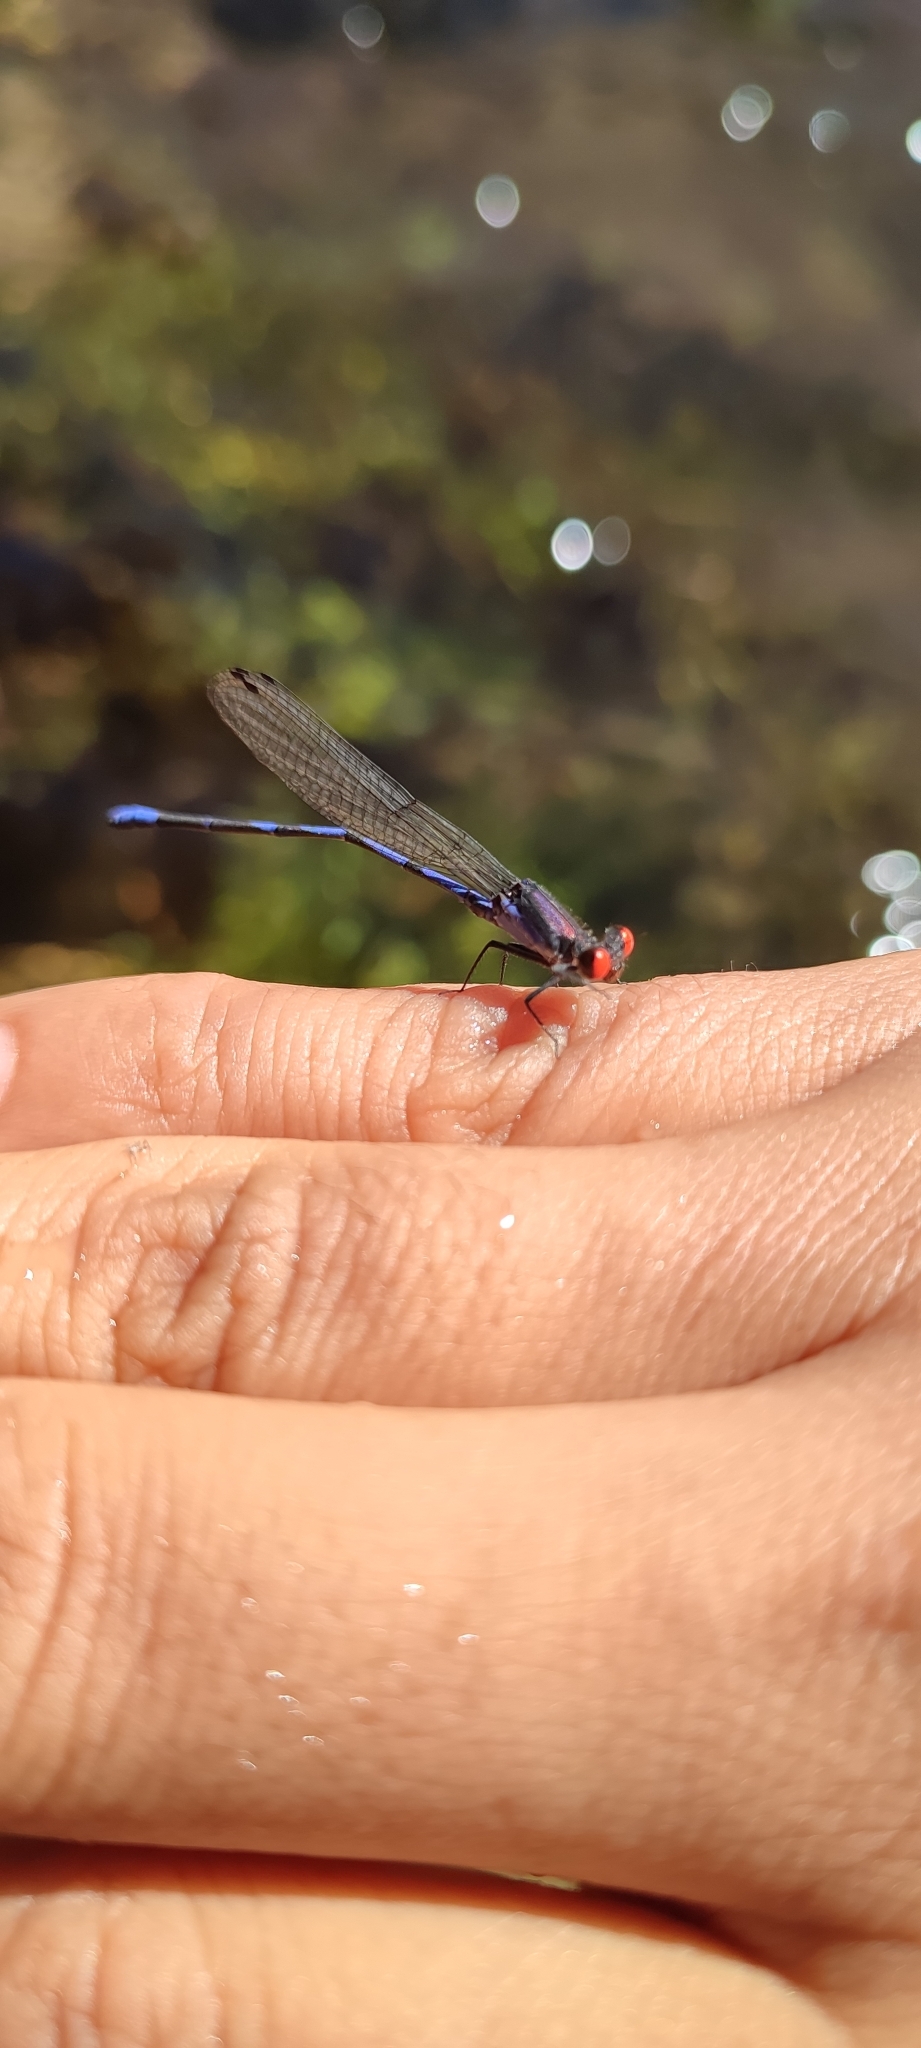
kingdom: Animalia
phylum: Arthropoda
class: Insecta
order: Odonata
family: Coenagrionidae
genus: Argia
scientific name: Argia oenea
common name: Fiery-eyed dancer
